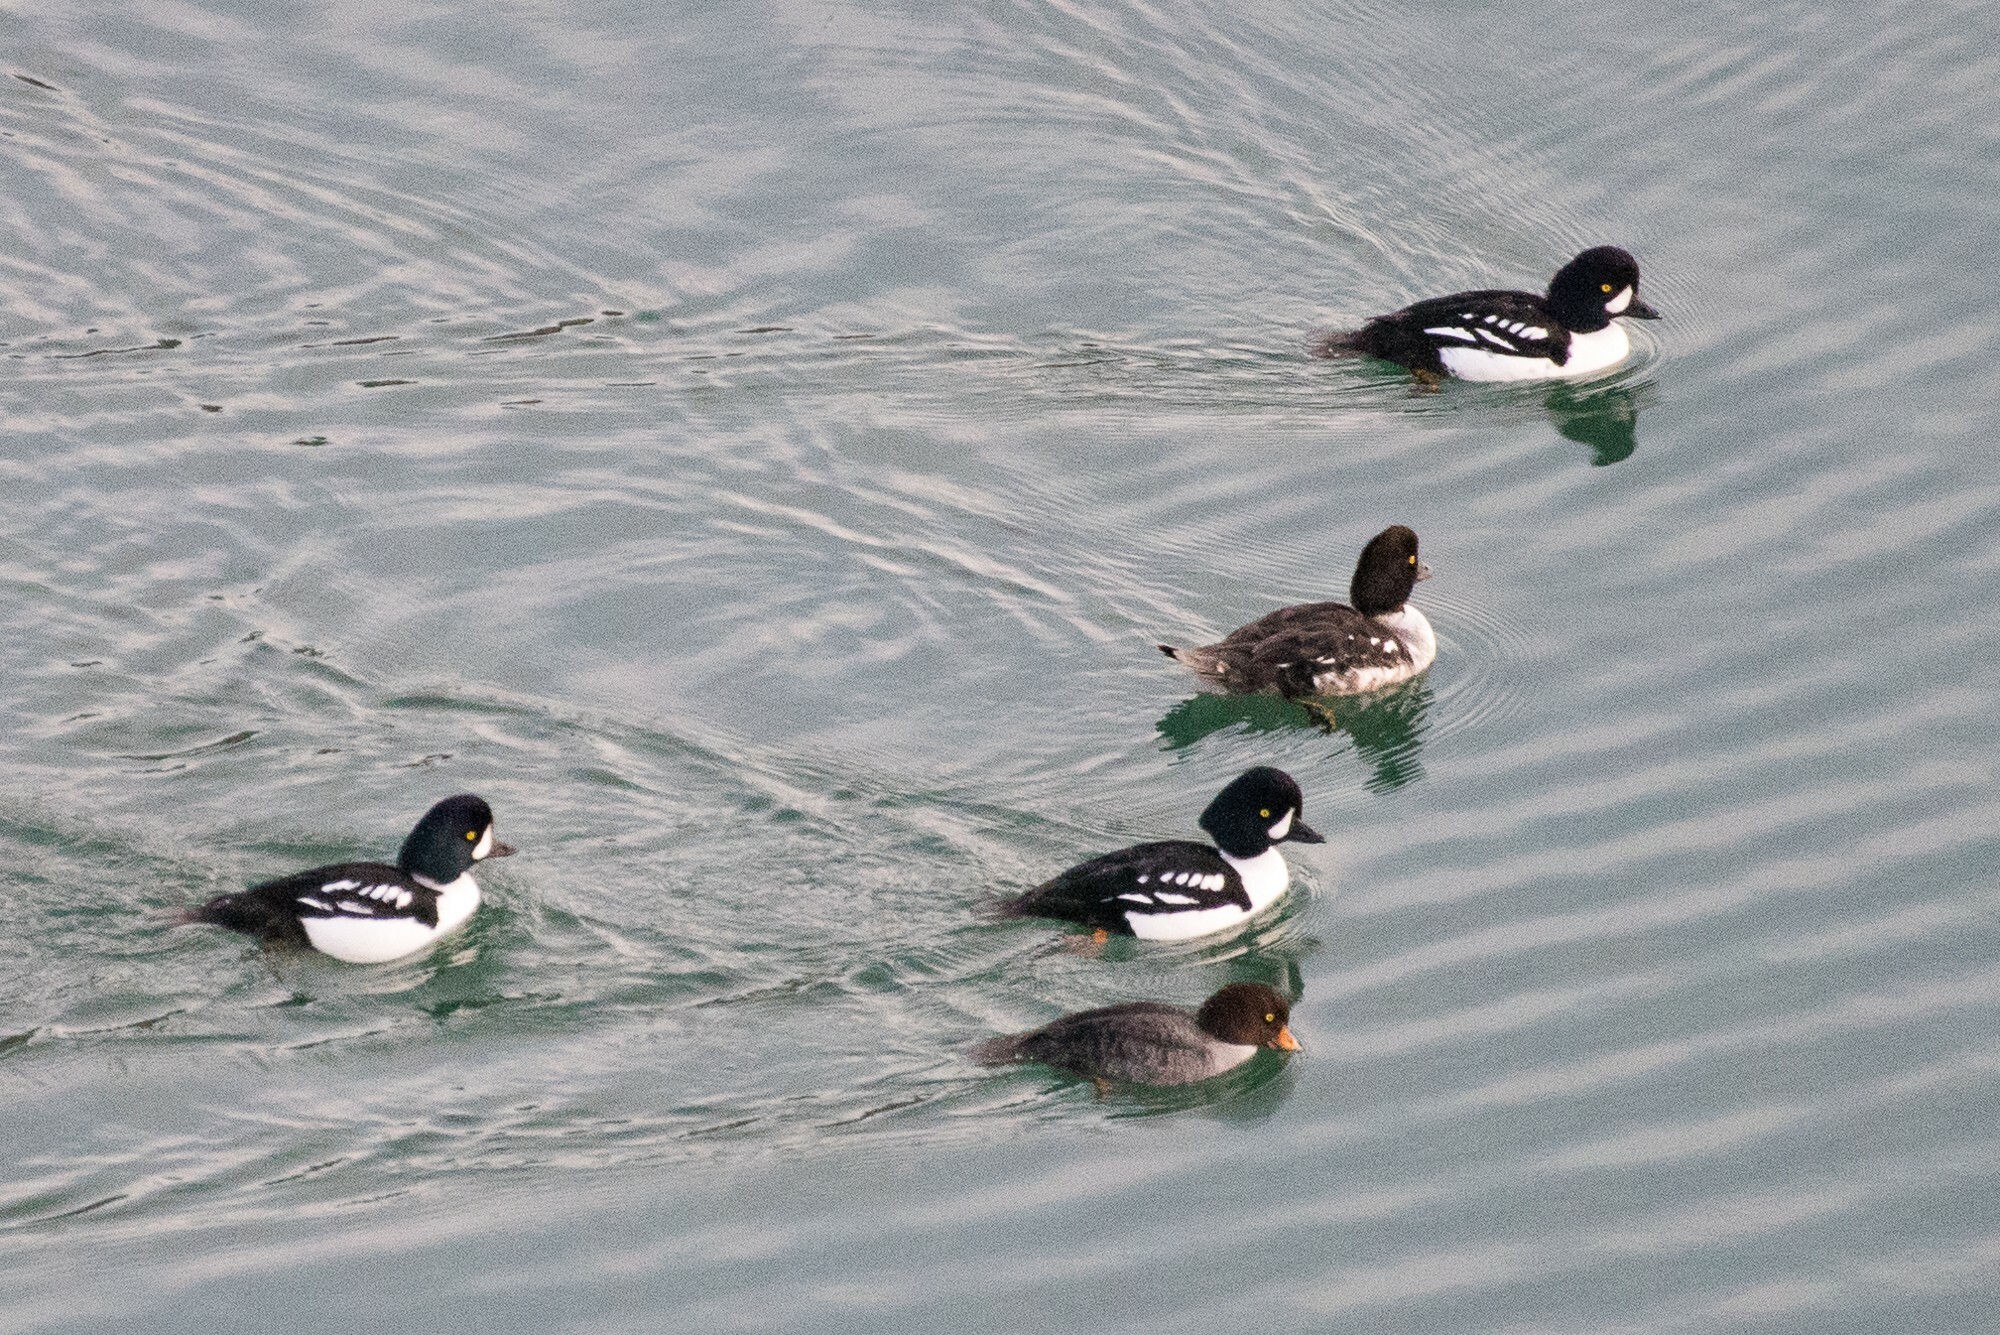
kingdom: Animalia
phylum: Chordata
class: Aves
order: Anseriformes
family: Anatidae
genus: Bucephala
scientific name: Bucephala islandica
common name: Barrow's goldeneye
